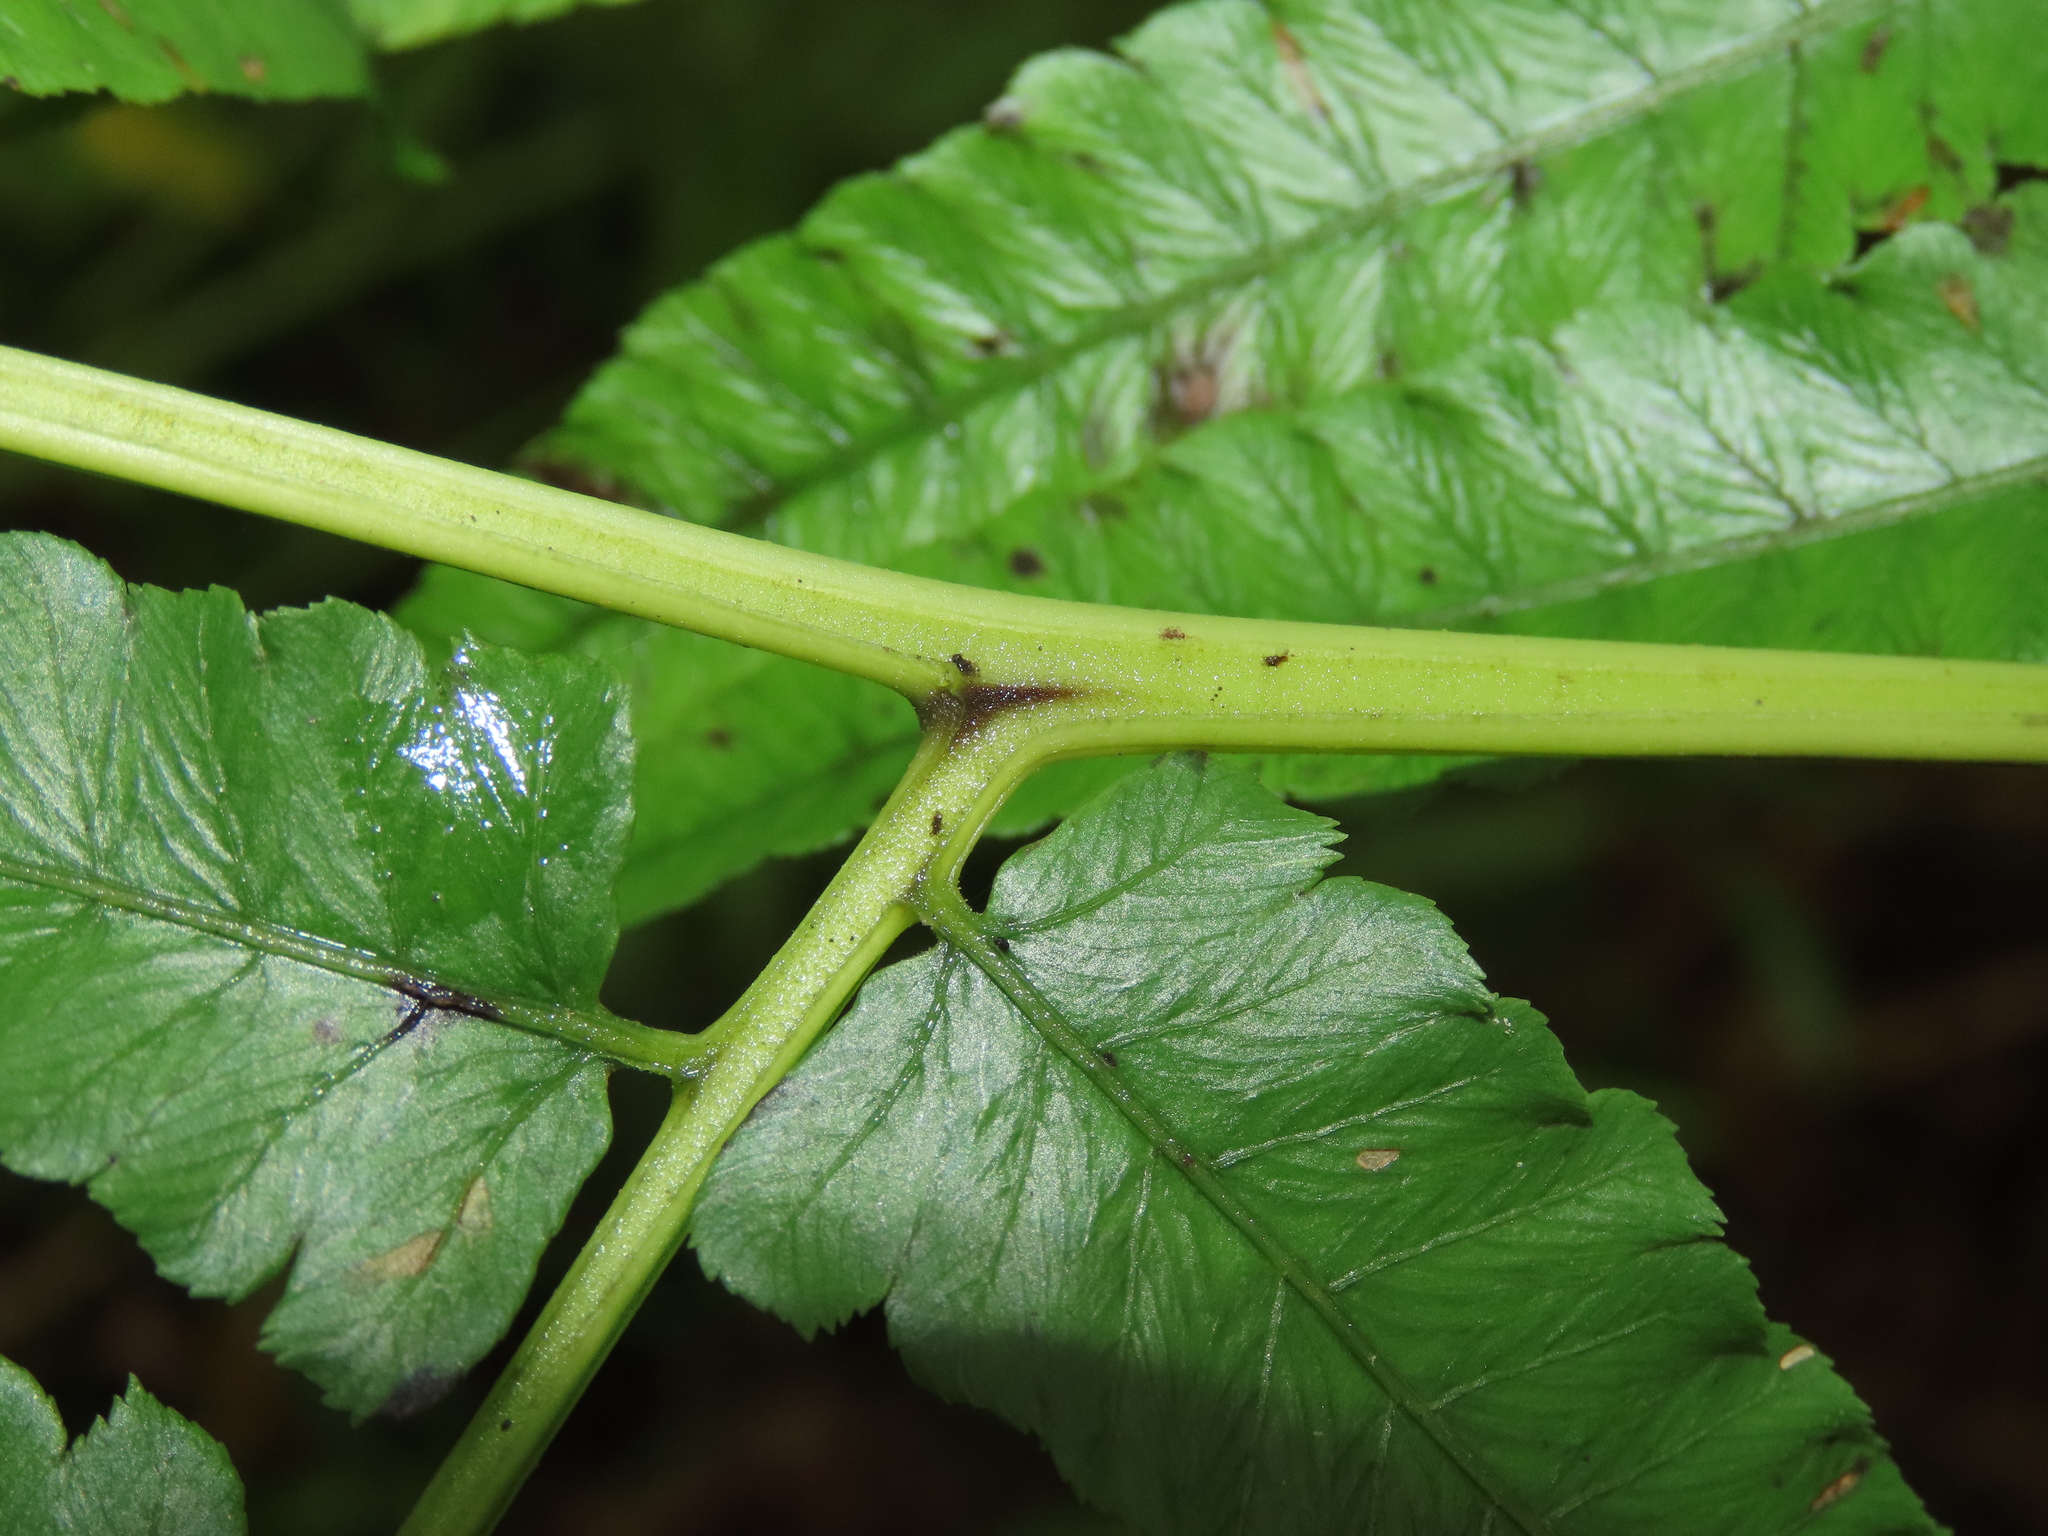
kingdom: Plantae
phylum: Tracheophyta
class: Polypodiopsida
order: Polypodiales
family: Athyriaceae
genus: Diplazium
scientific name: Diplazium esculentum
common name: Vegetable fern
